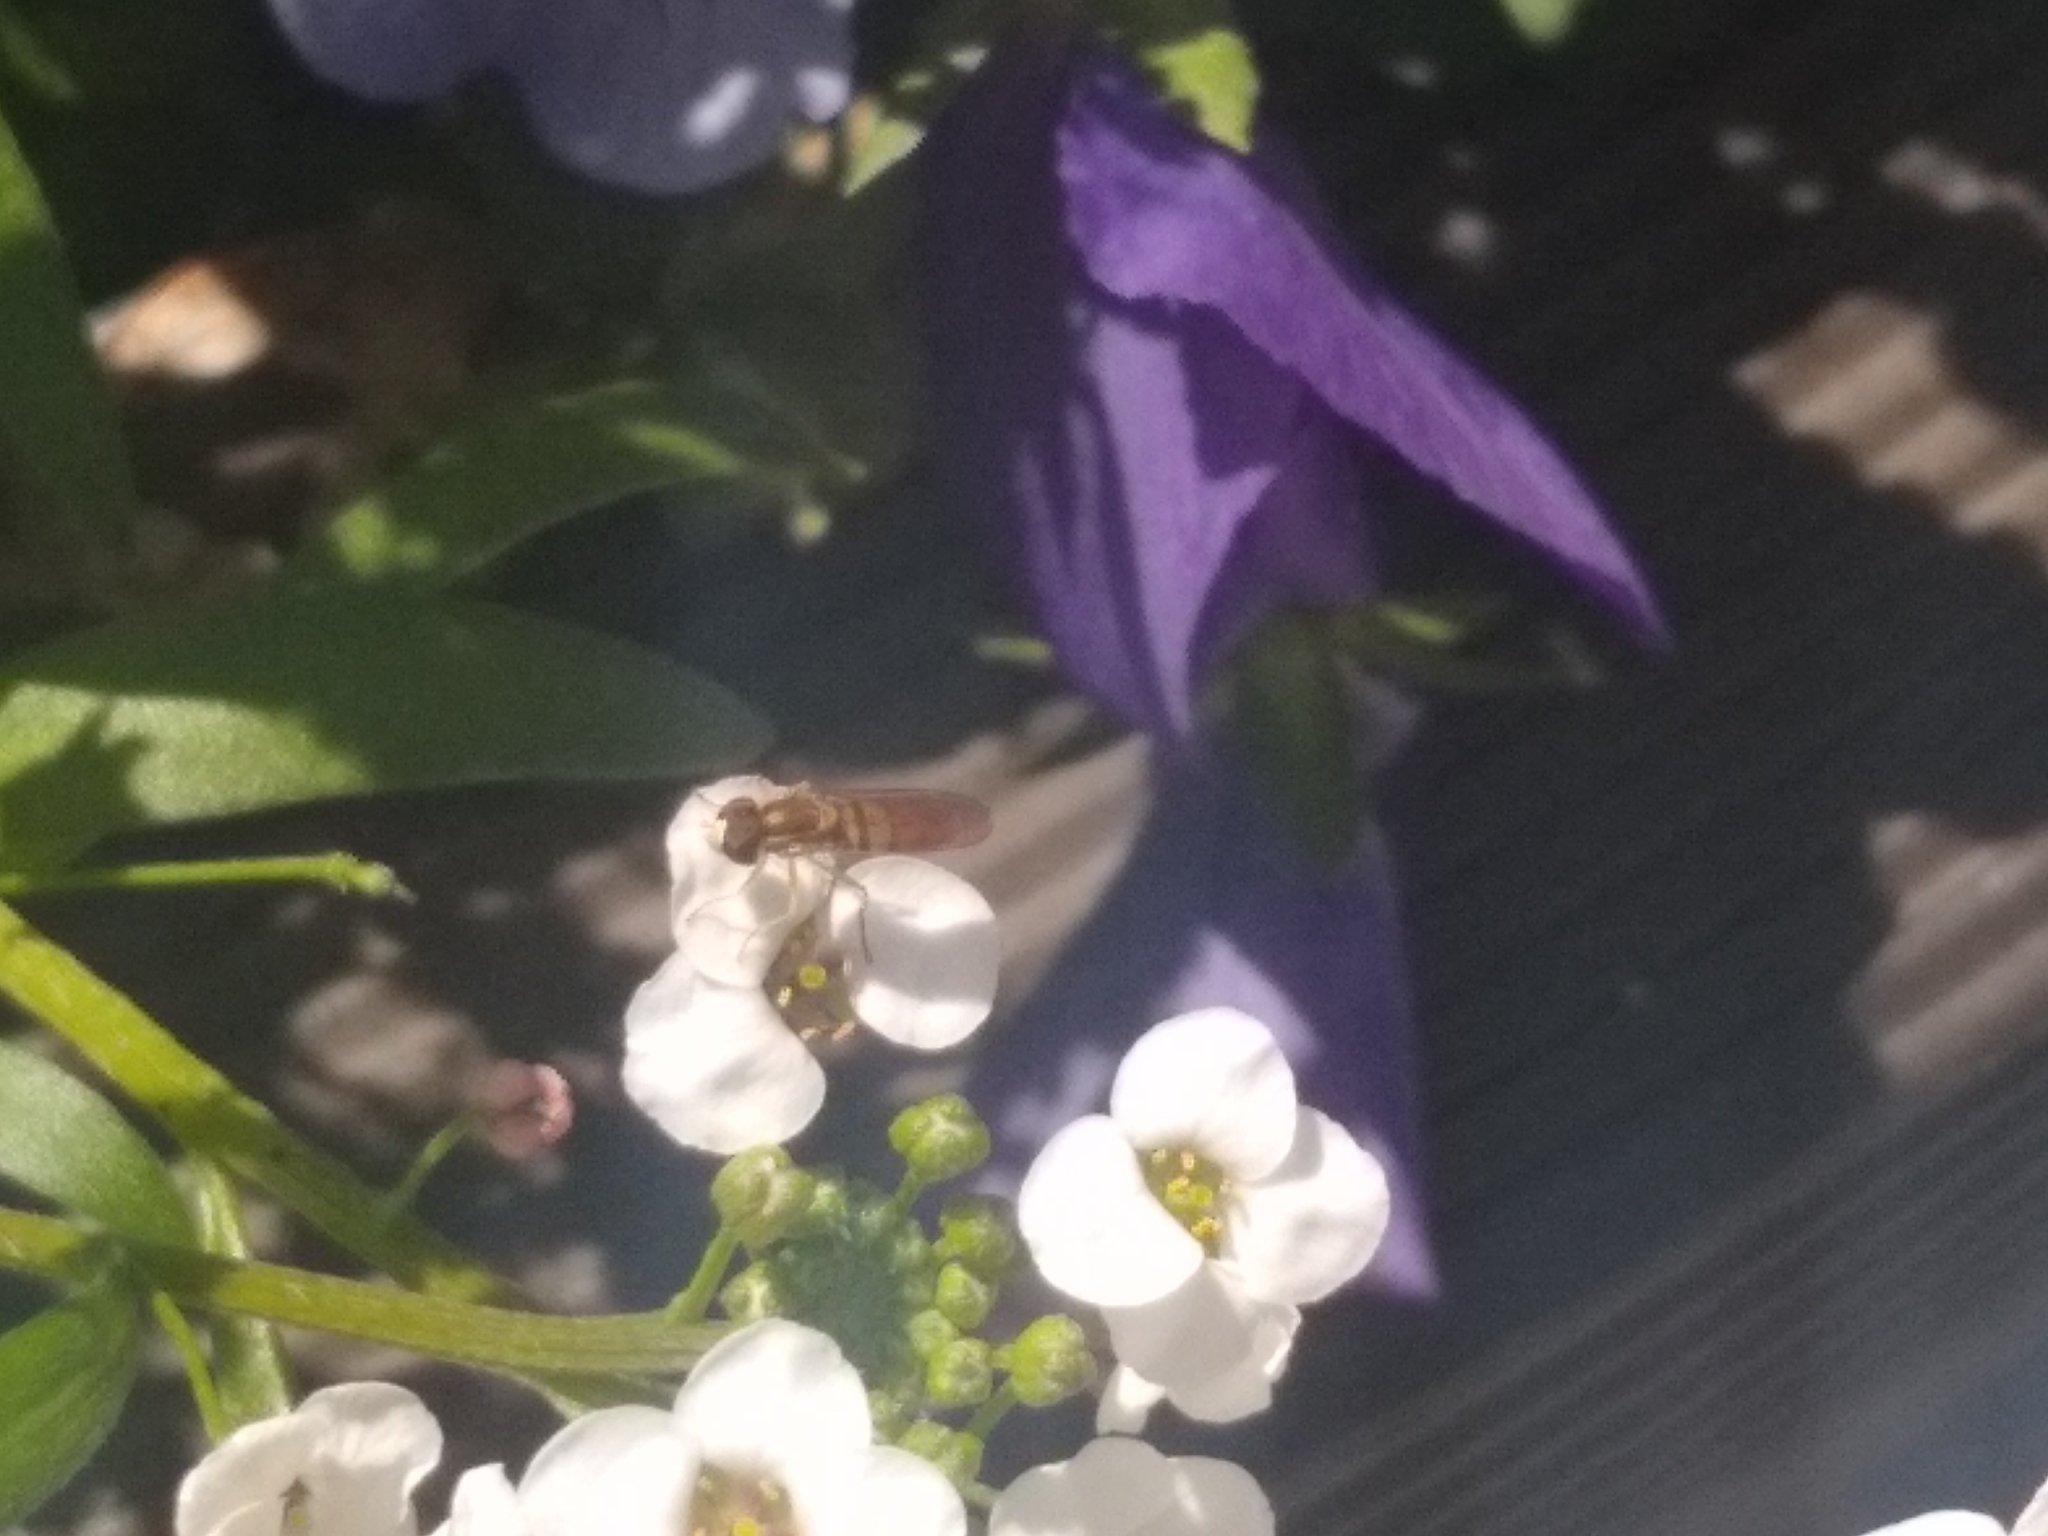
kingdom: Animalia
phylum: Arthropoda
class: Insecta
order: Diptera
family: Syrphidae
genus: Toxomerus
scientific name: Toxomerus marginatus
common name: Syrphid fly
